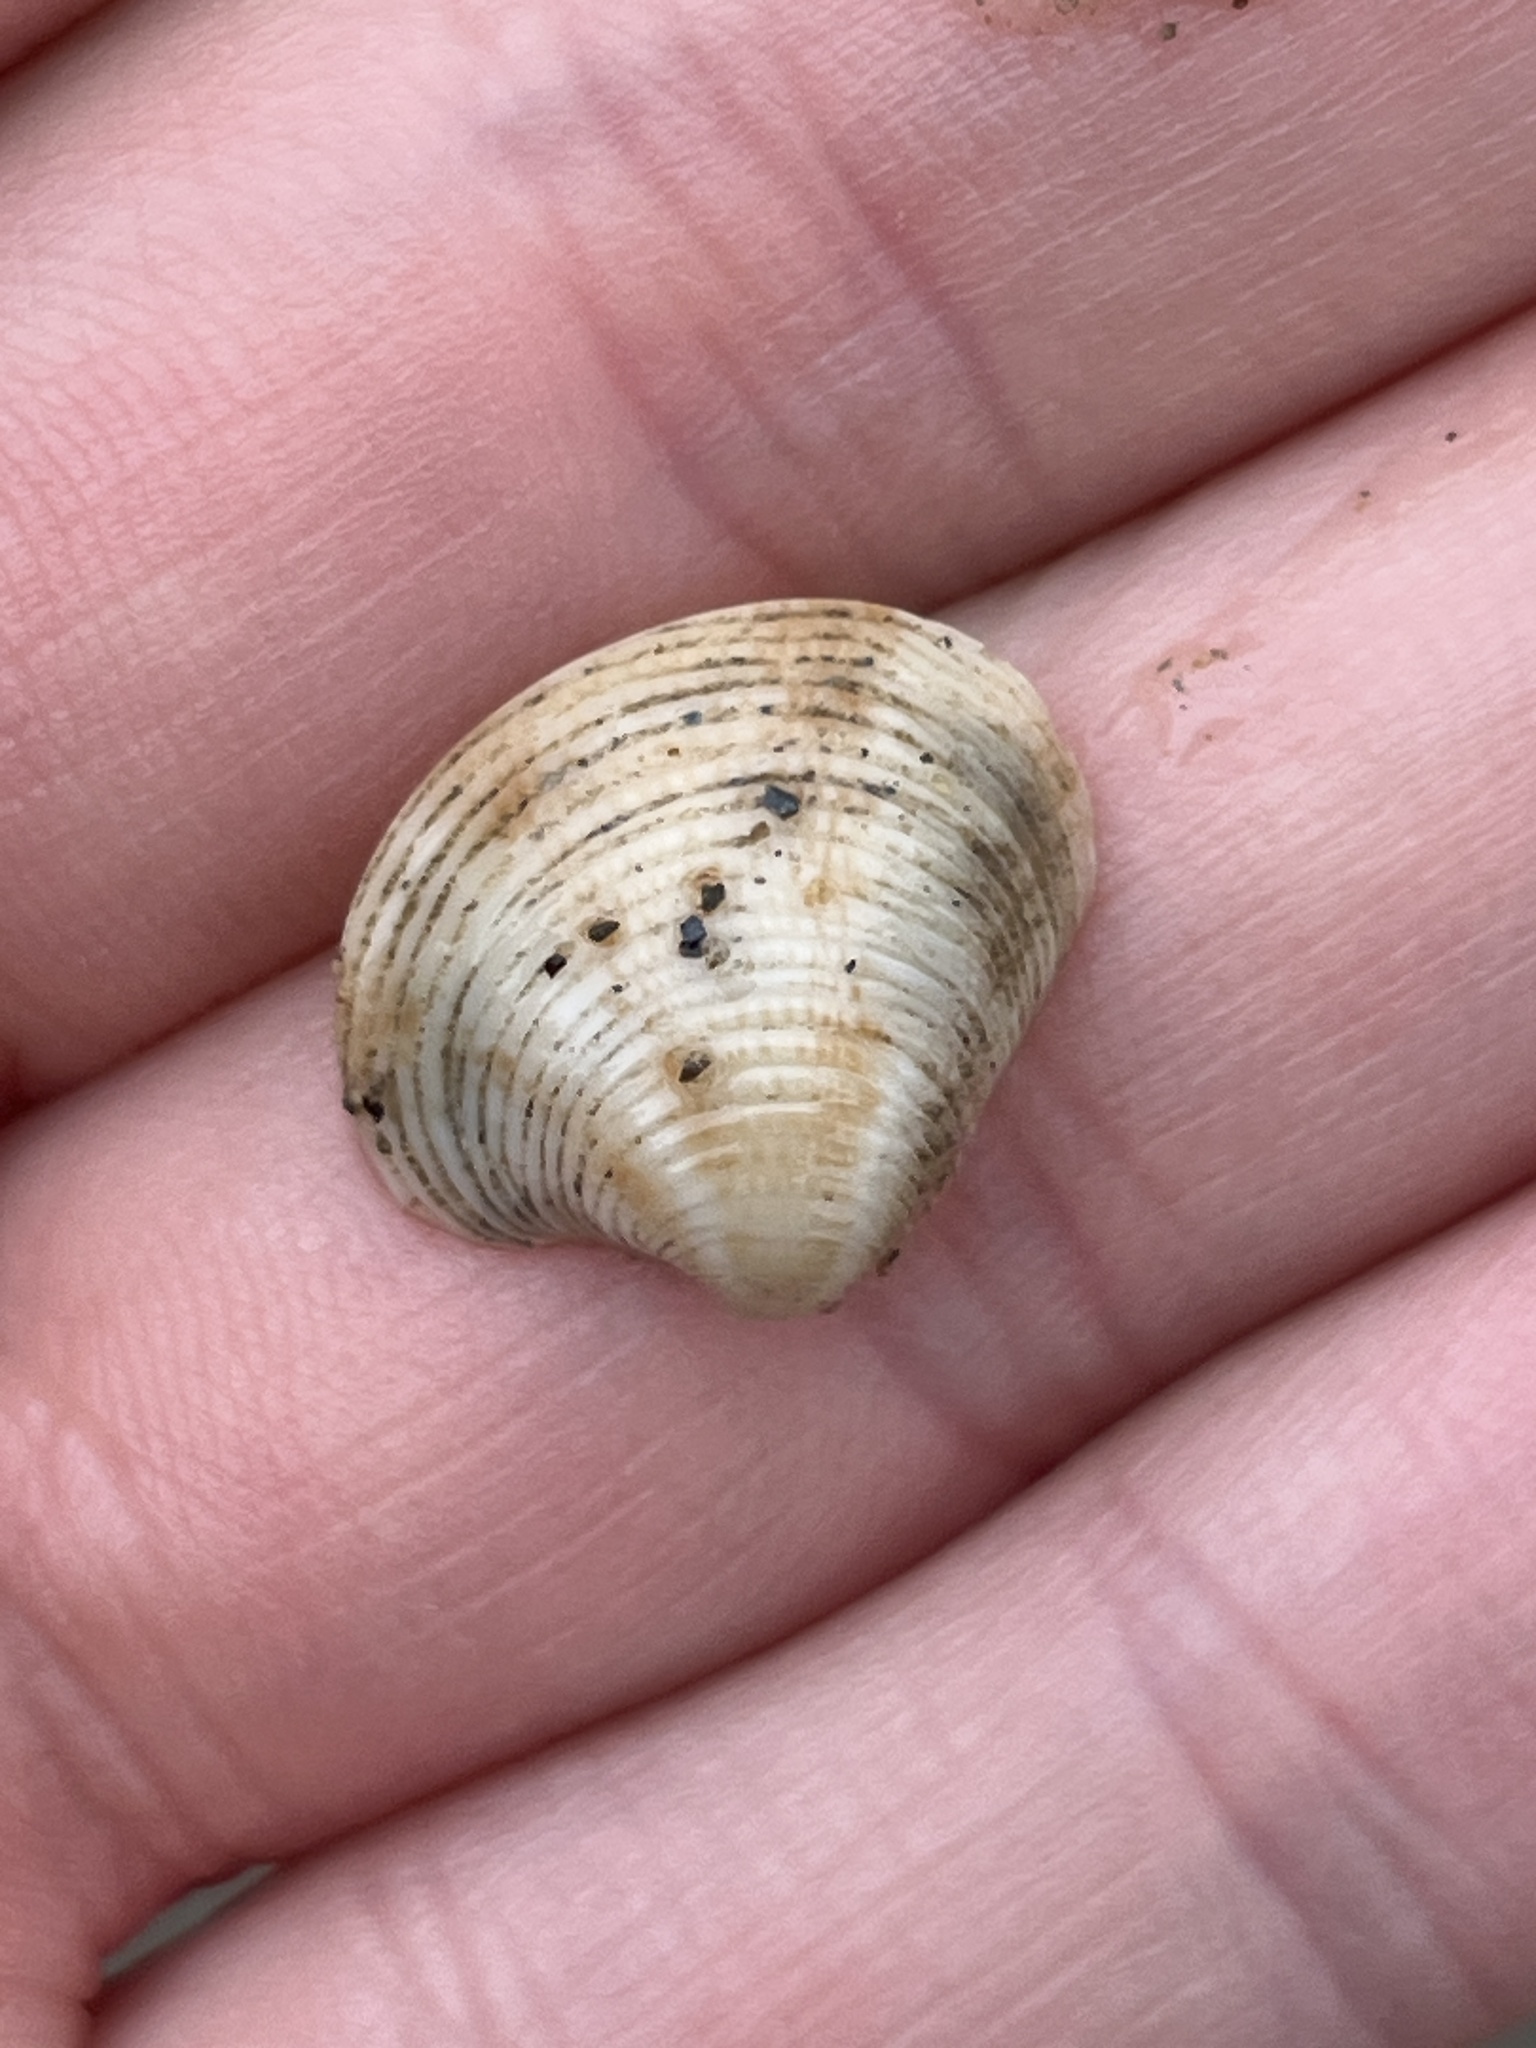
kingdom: Animalia
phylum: Mollusca
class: Bivalvia
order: Venerida
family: Veneridae
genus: Chamelea
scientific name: Chamelea gallina
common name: Chicken venus
